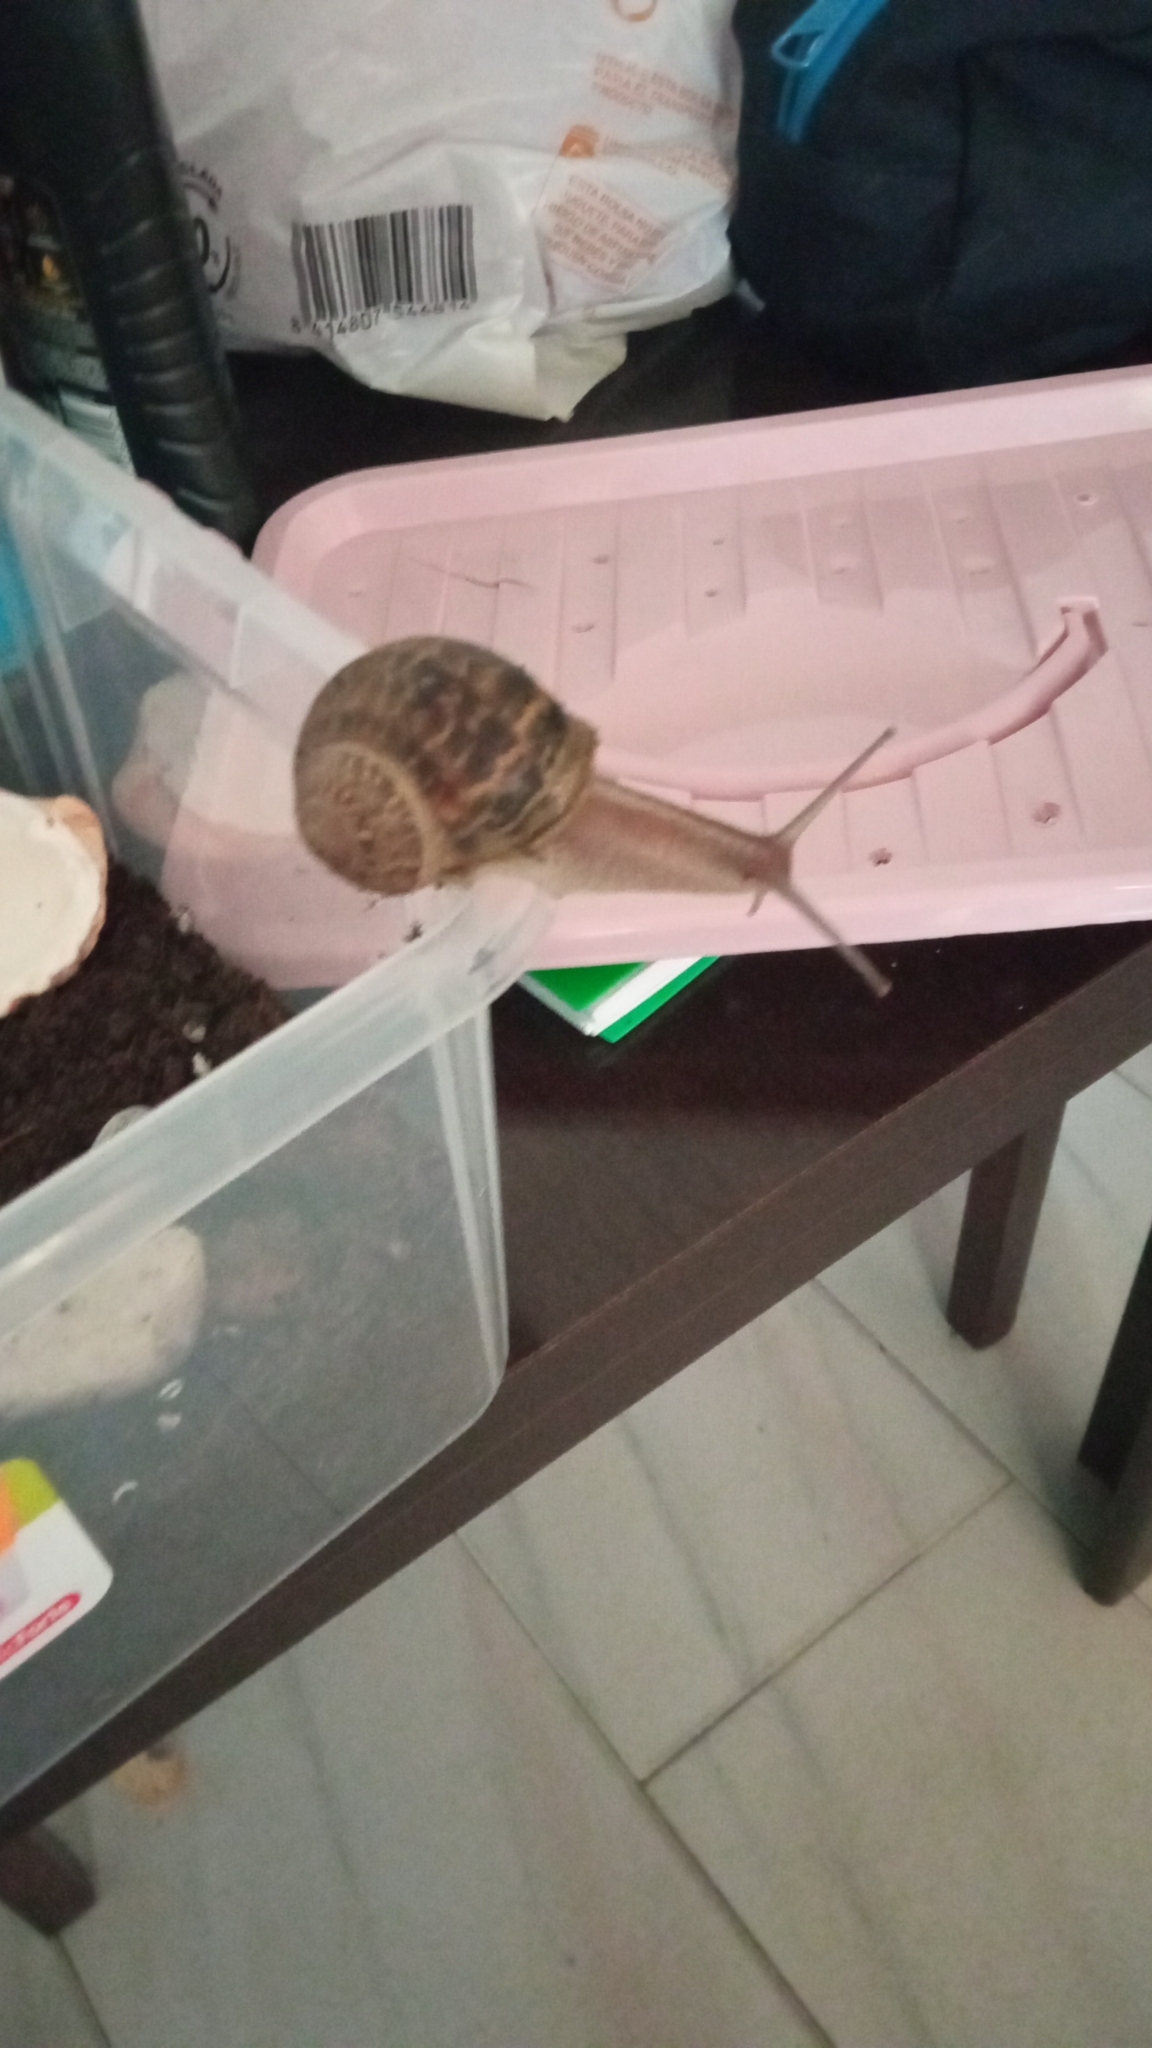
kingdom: Animalia
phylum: Mollusca
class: Gastropoda
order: Stylommatophora
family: Helicidae
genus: Cornu
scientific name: Cornu aspersum
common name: Brown garden snail
